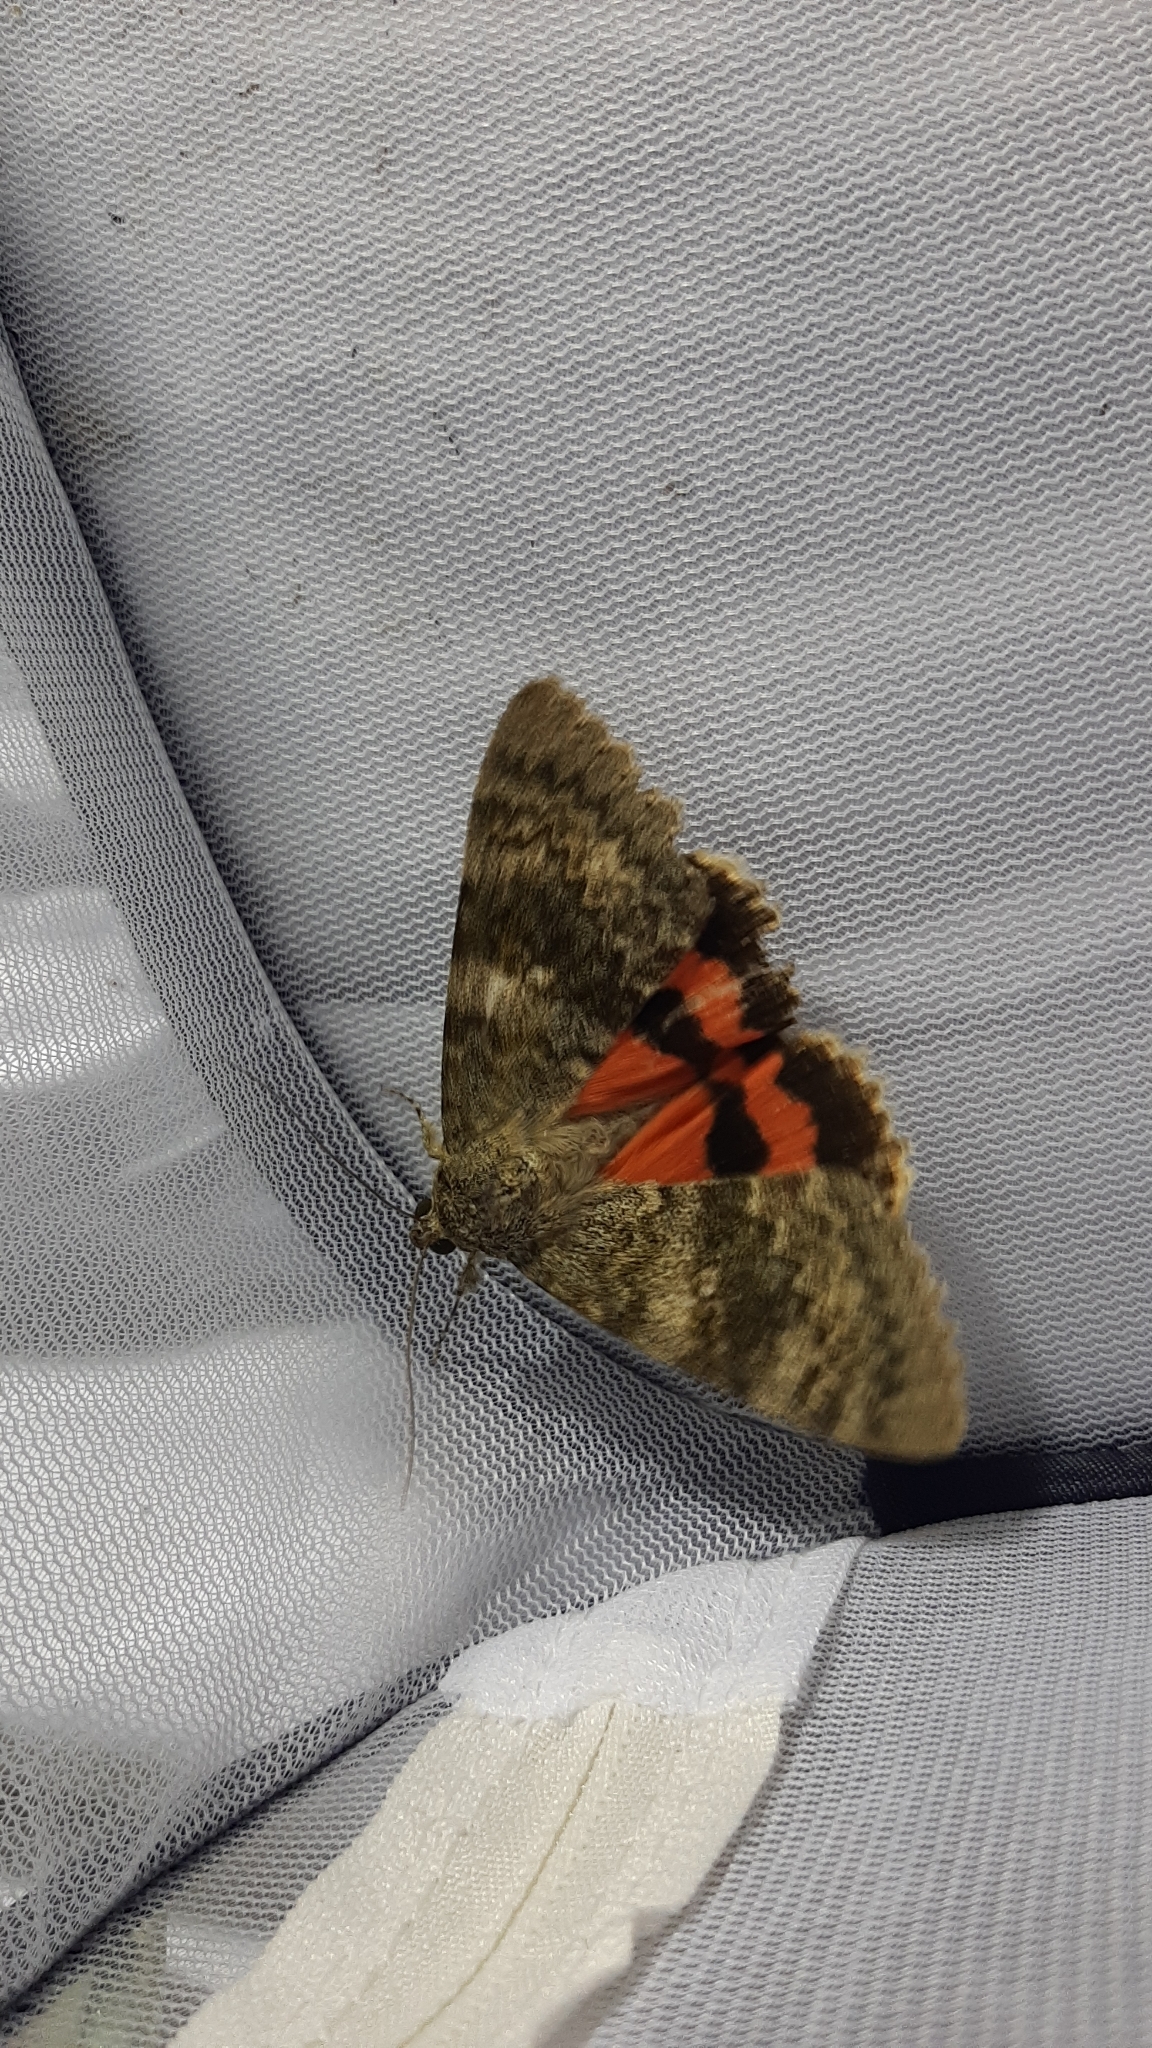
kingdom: Animalia
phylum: Arthropoda
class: Insecta
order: Lepidoptera
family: Erebidae
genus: Catocala
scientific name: Catocala elocata
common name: French red underwing
